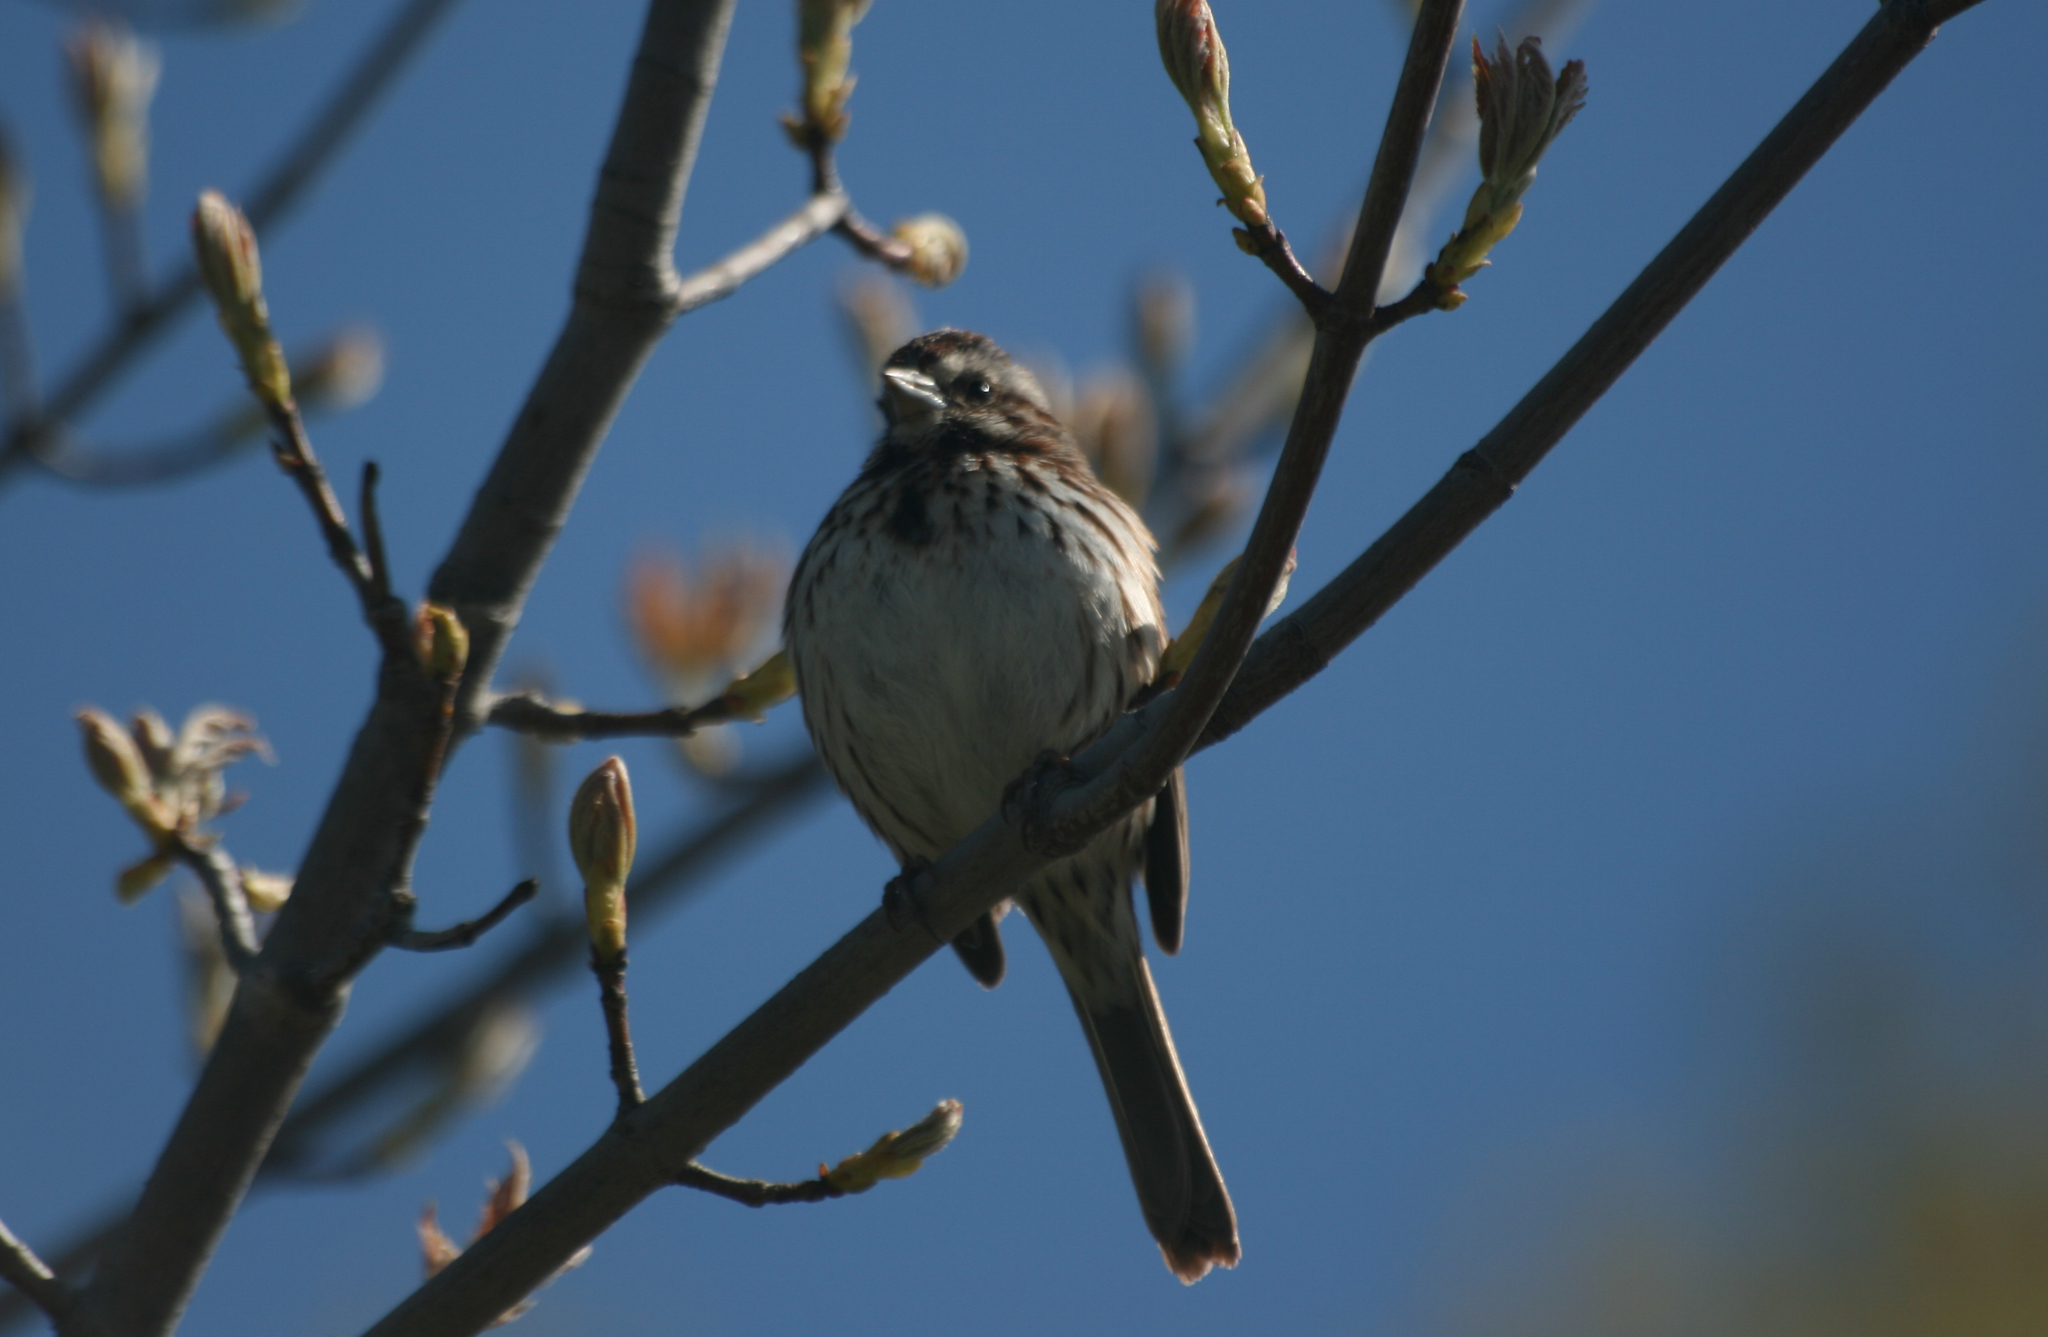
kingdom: Animalia
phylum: Chordata
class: Aves
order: Passeriformes
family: Passerellidae
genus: Melospiza
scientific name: Melospiza melodia
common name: Song sparrow
